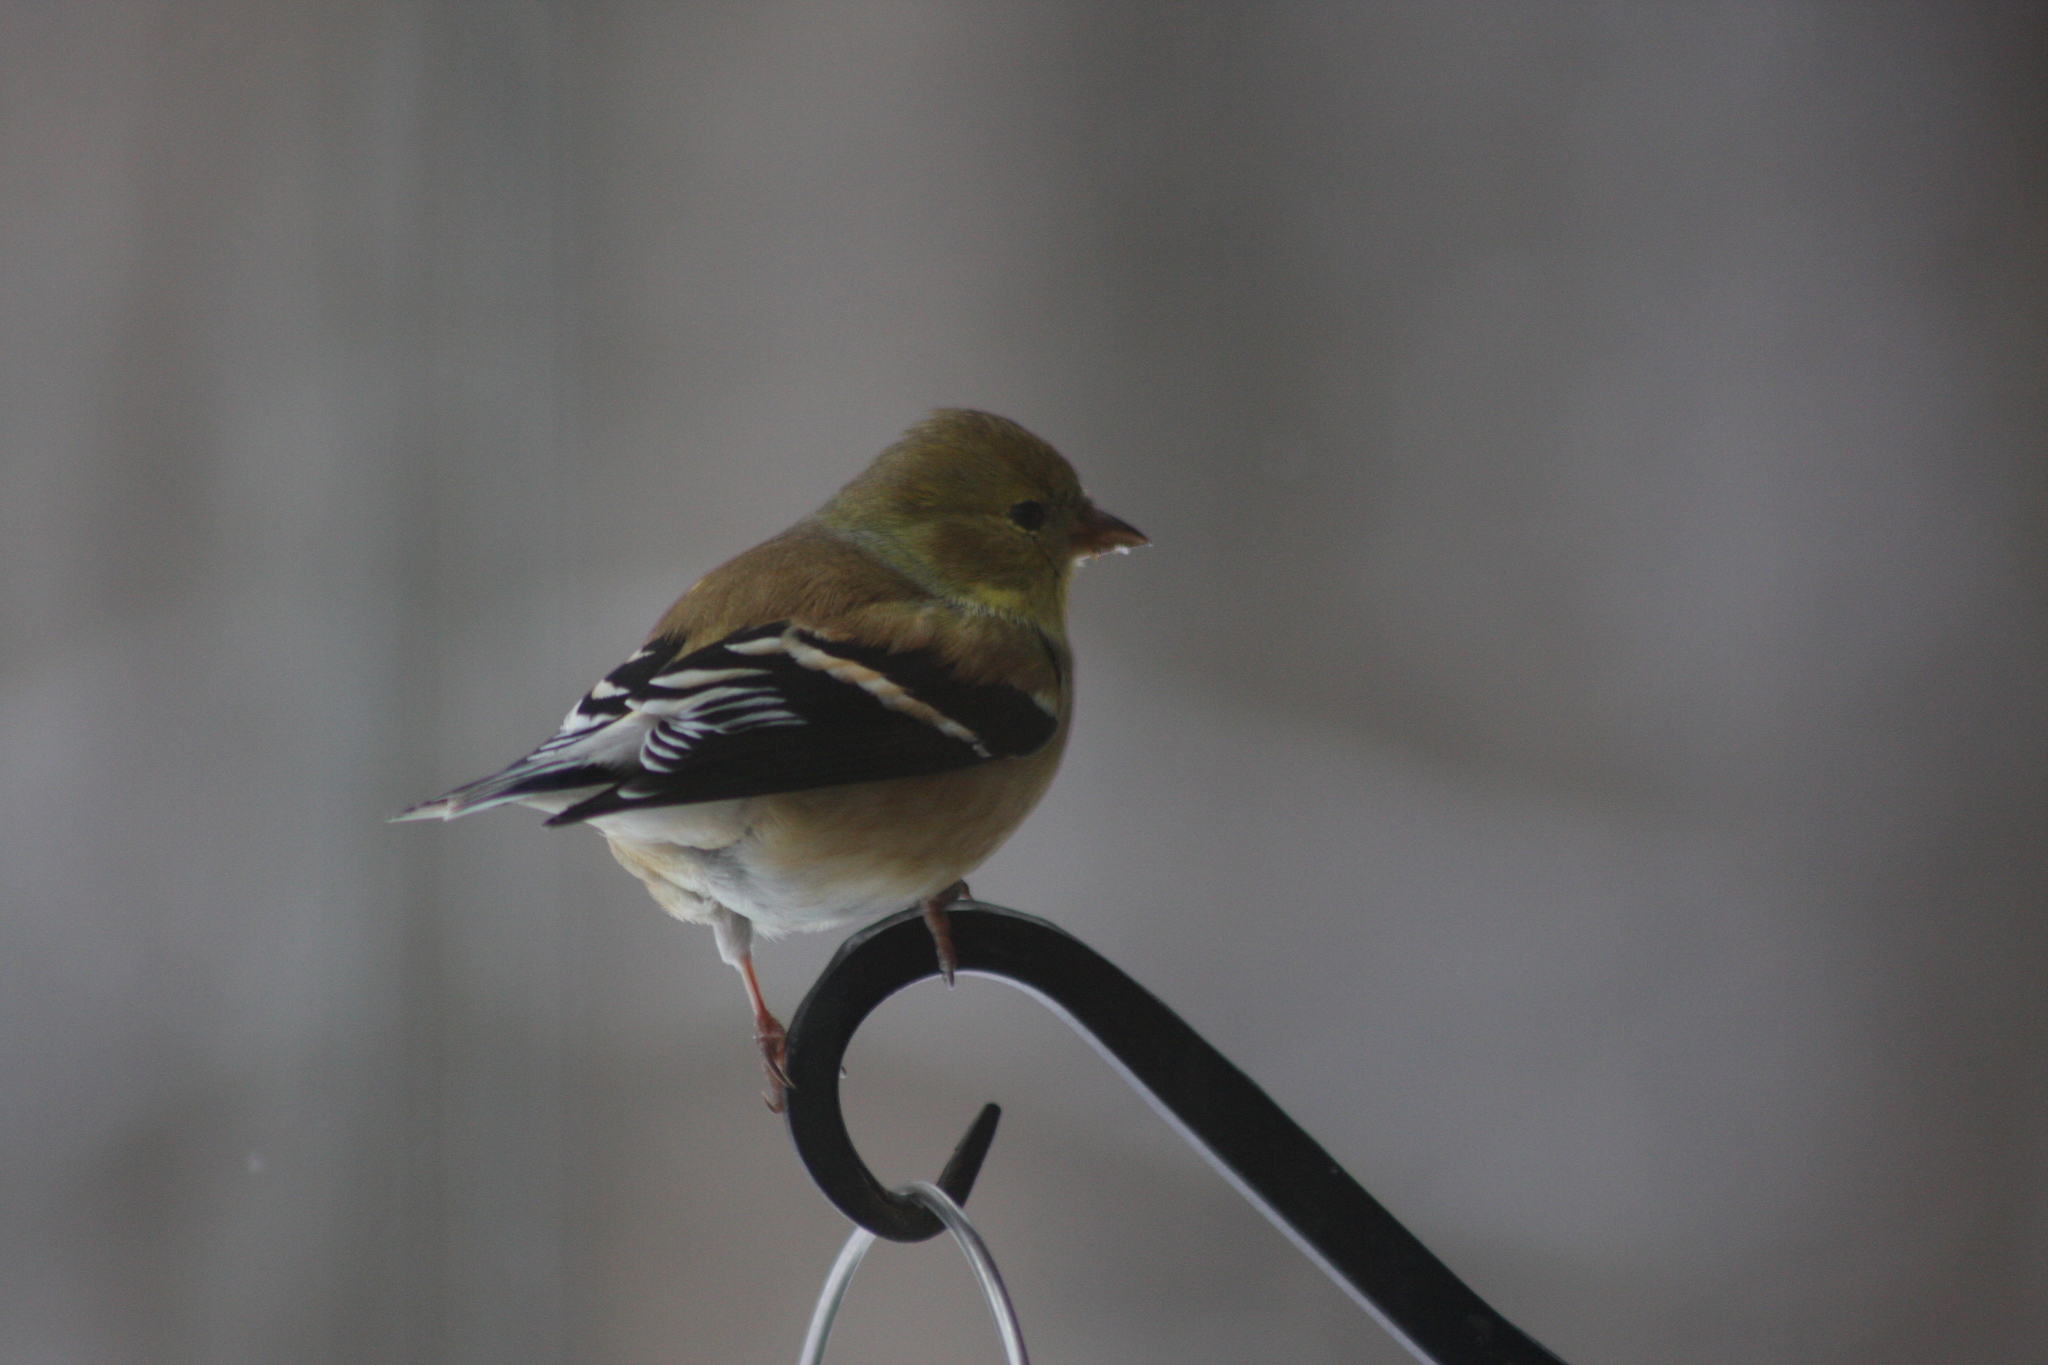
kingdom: Animalia
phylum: Chordata
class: Aves
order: Passeriformes
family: Fringillidae
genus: Spinus
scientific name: Spinus tristis
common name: American goldfinch
